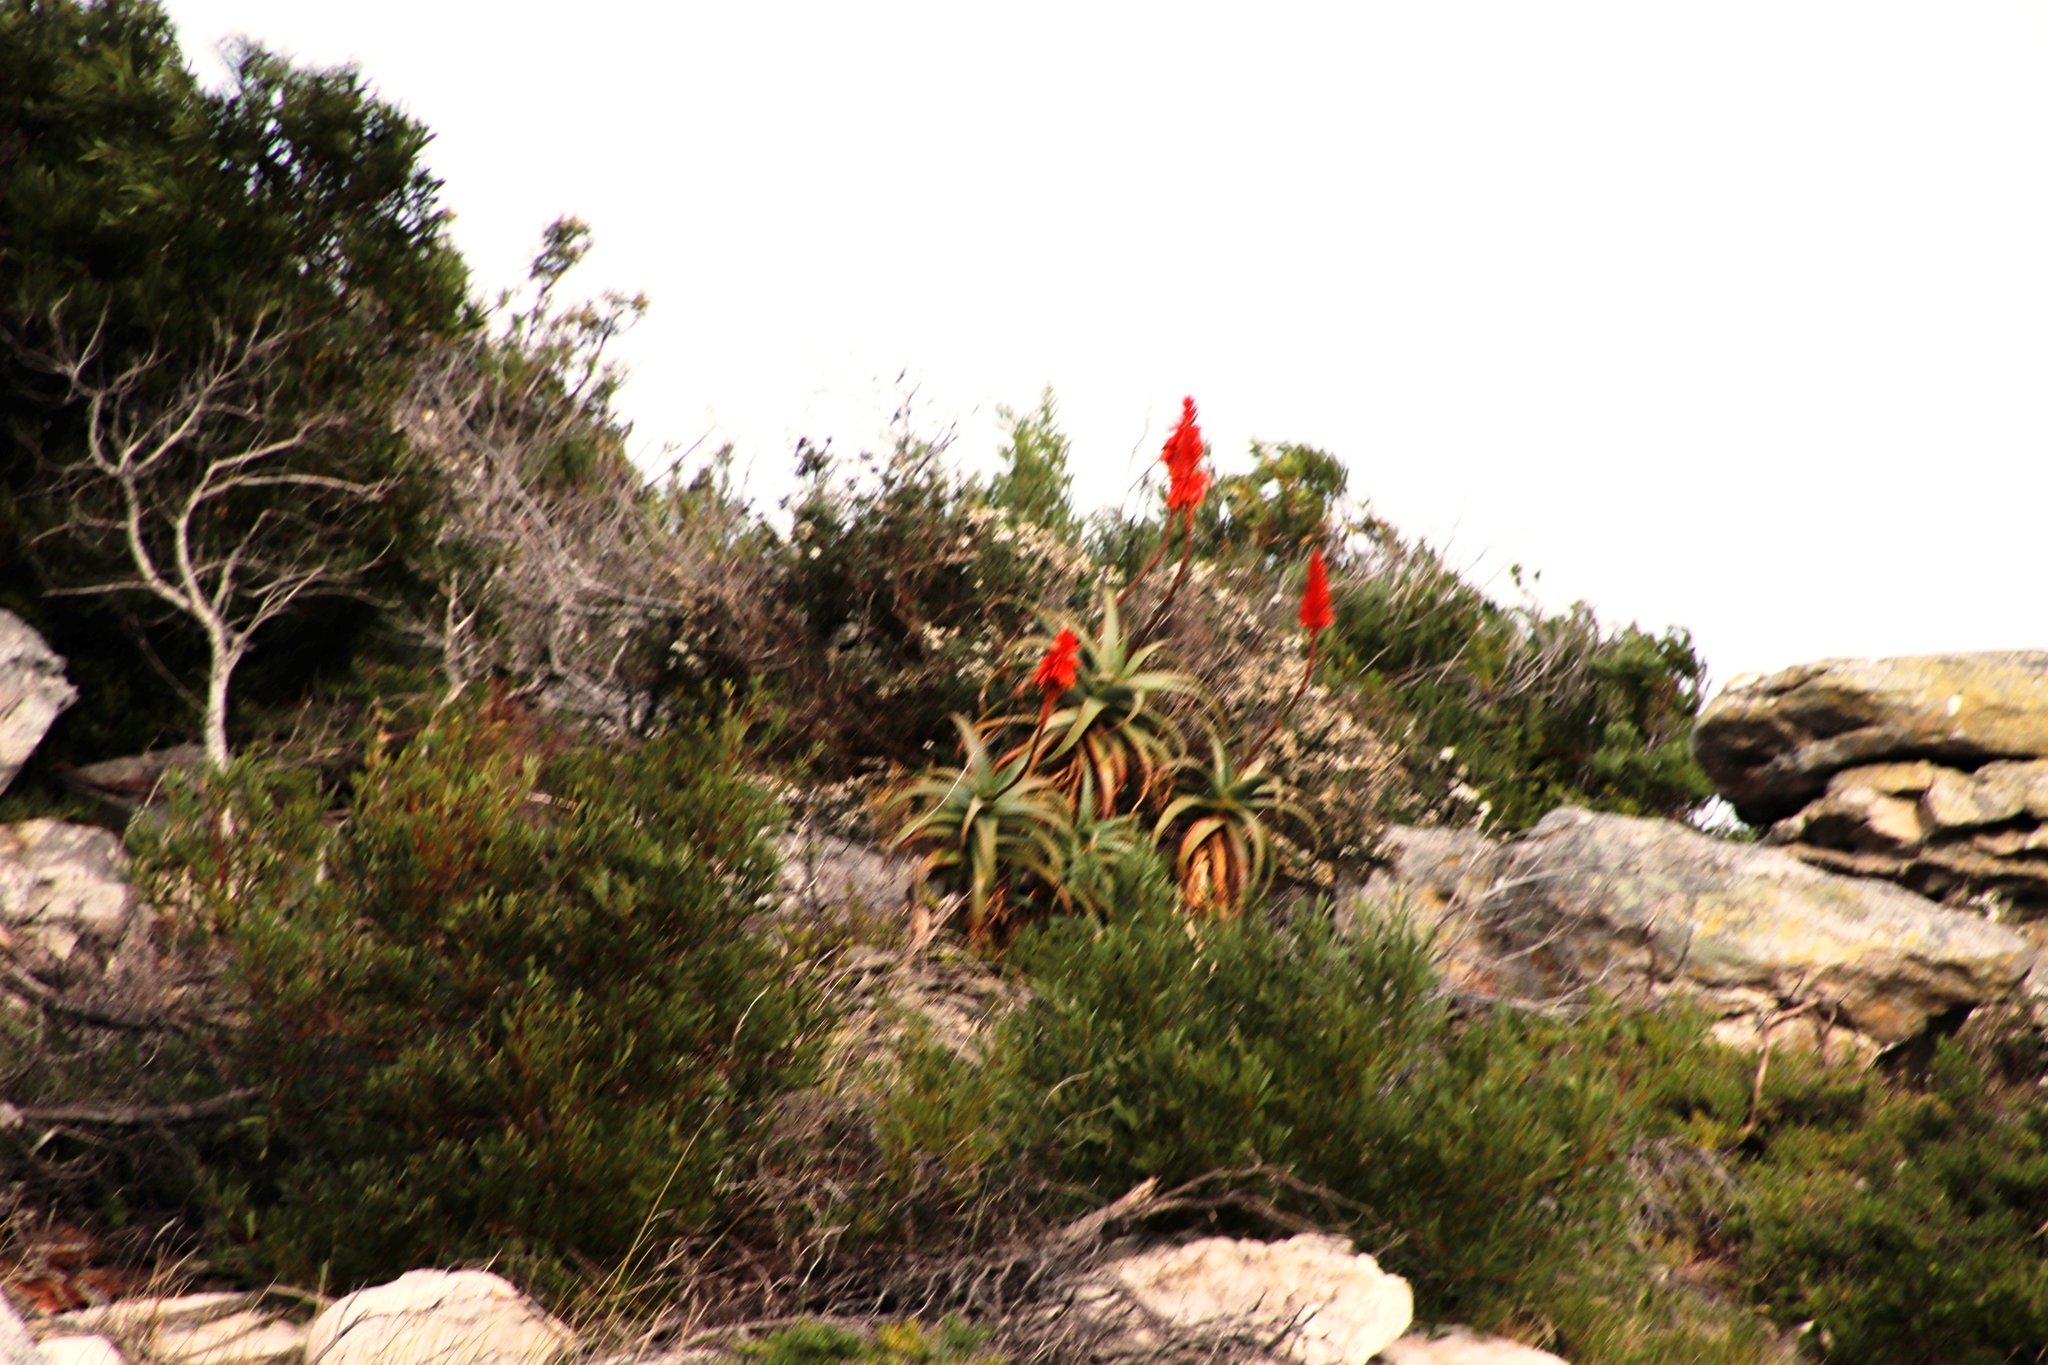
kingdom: Plantae
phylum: Tracheophyta
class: Liliopsida
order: Asparagales
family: Asphodelaceae
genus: Aloe
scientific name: Aloe arborescens
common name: Candelabra aloe
